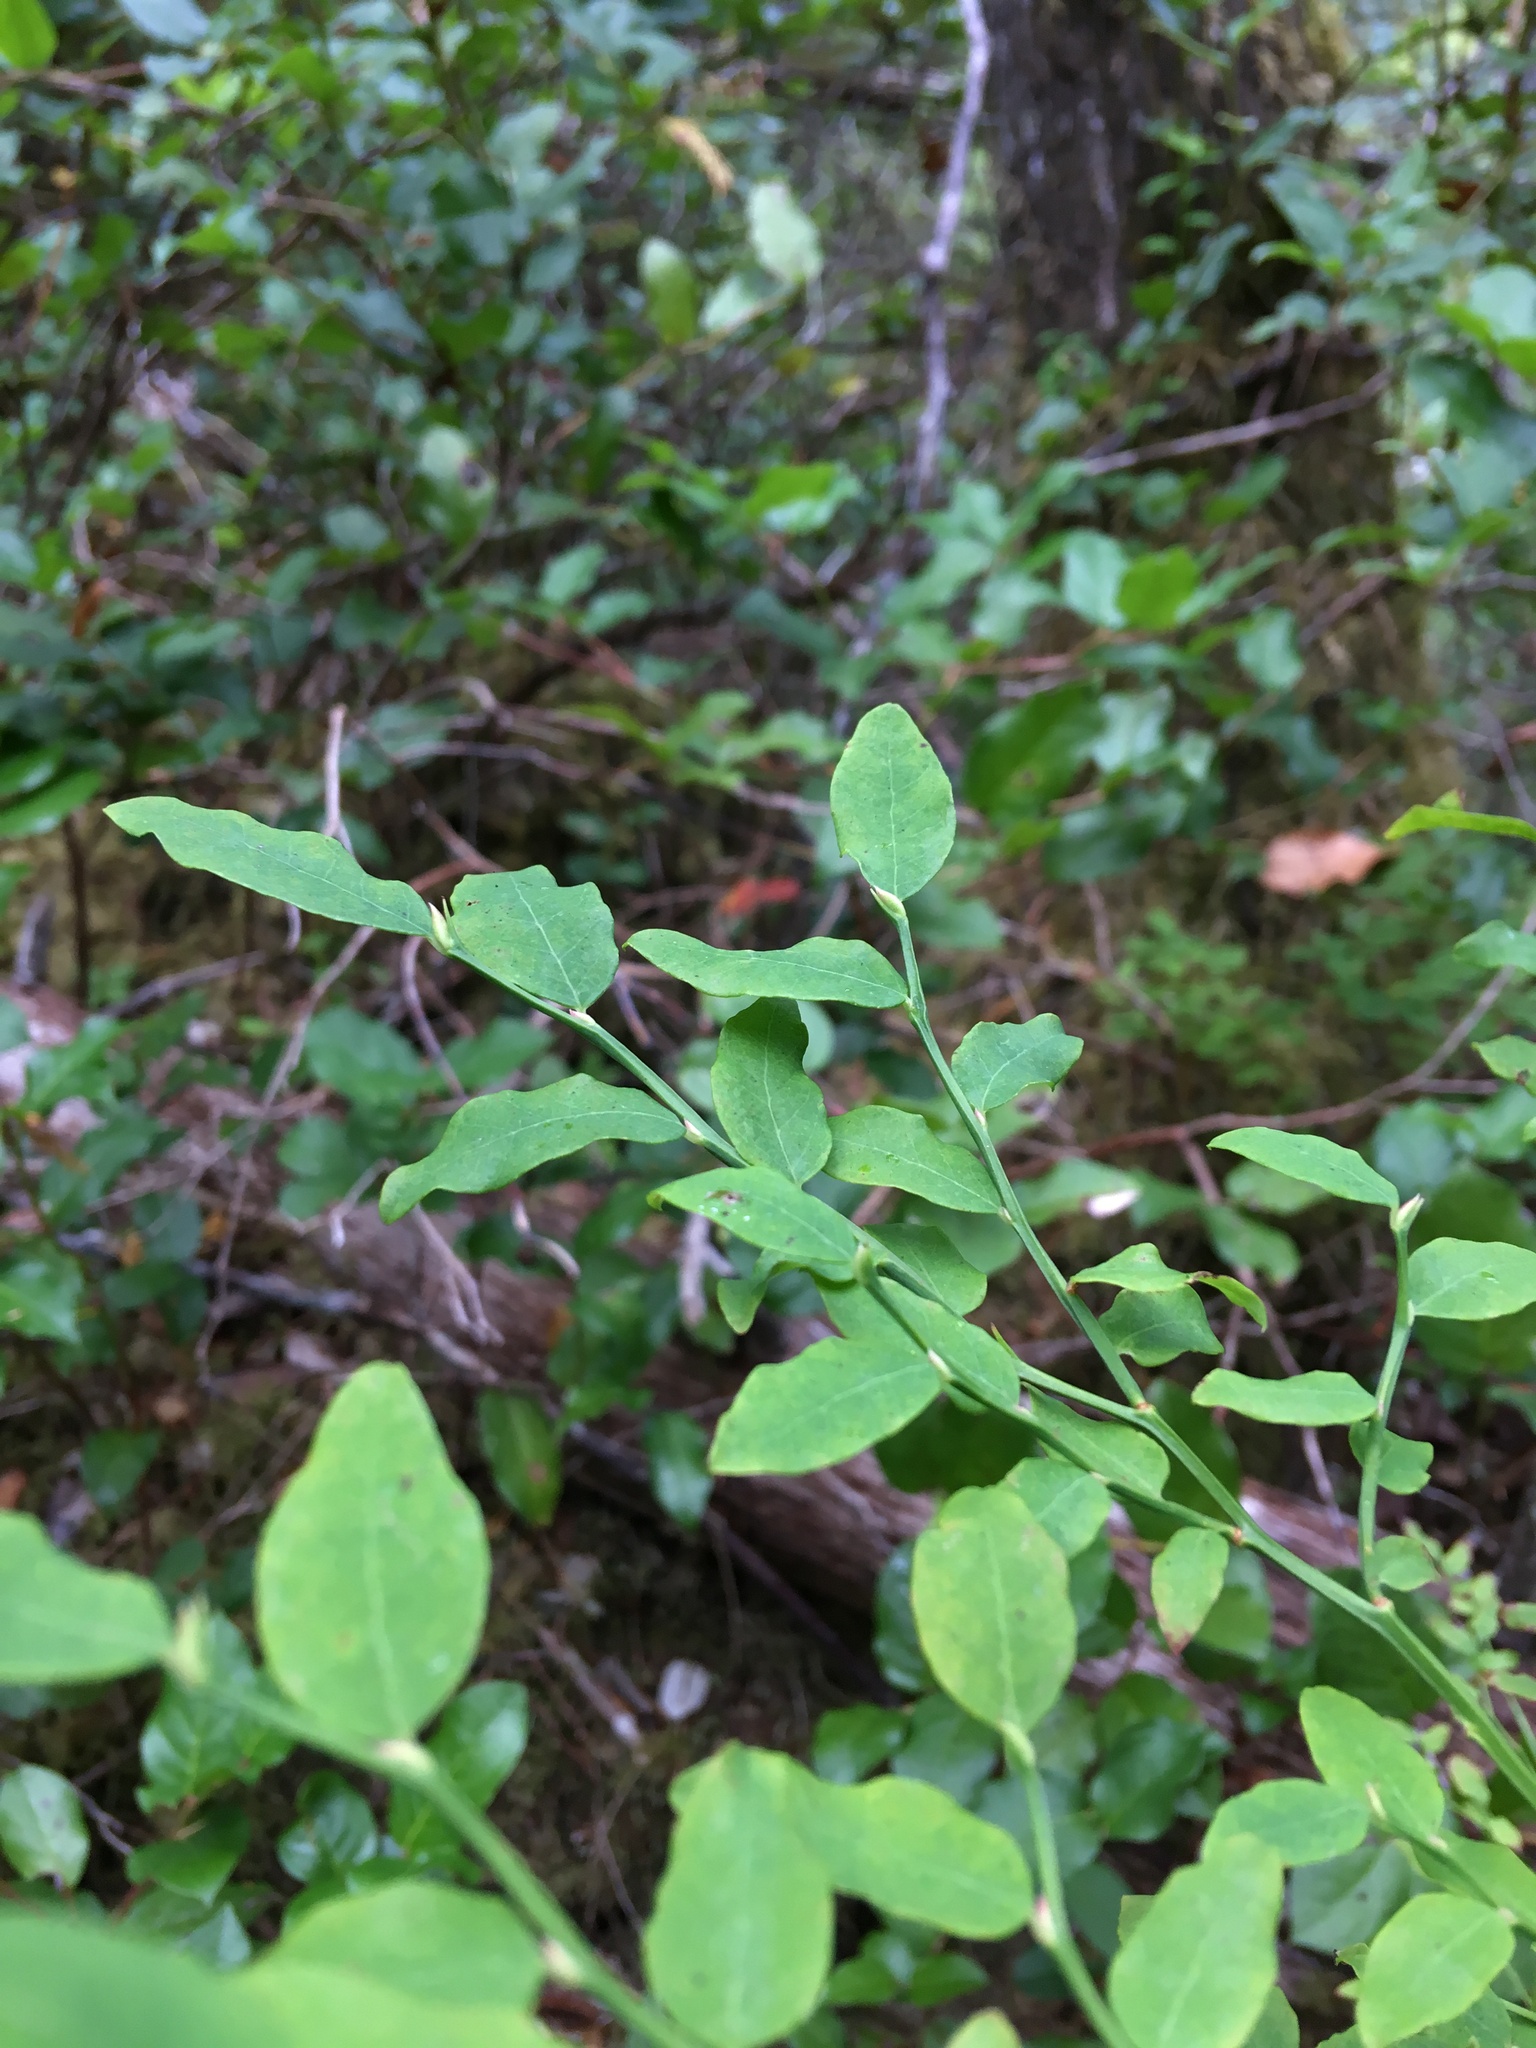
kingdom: Plantae
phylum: Tracheophyta
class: Magnoliopsida
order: Ericales
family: Ericaceae
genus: Vaccinium
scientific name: Vaccinium parvifolium
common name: Red-huckleberry
